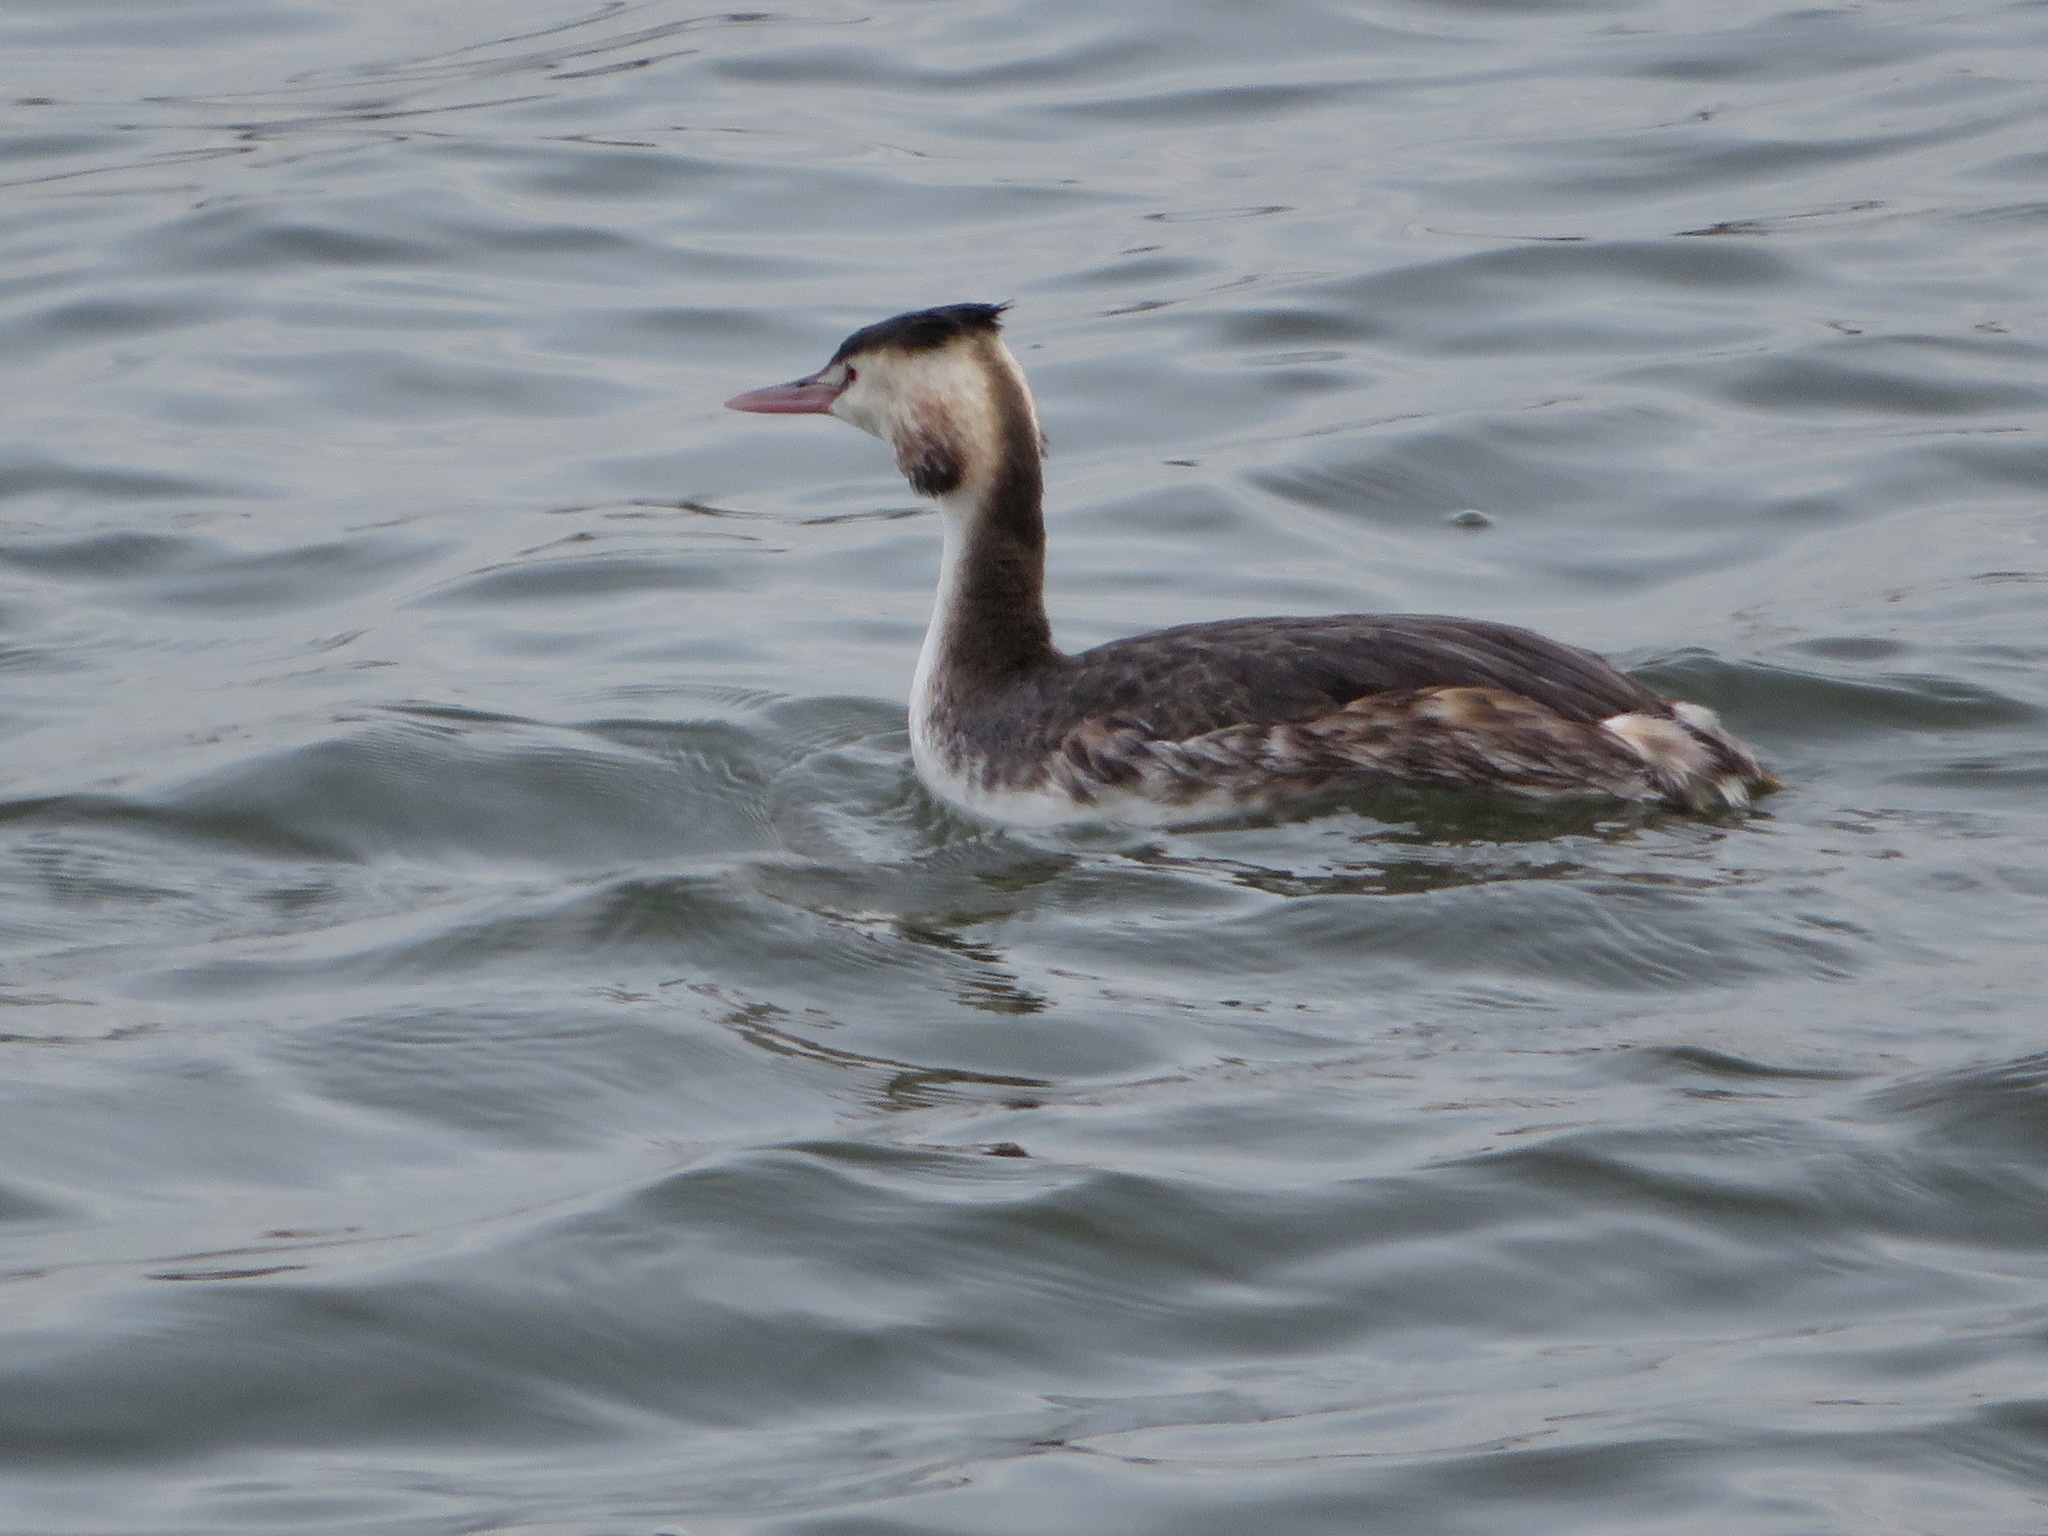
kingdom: Animalia
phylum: Chordata
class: Aves
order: Podicipediformes
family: Podicipedidae
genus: Podiceps
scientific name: Podiceps cristatus
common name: Great crested grebe
